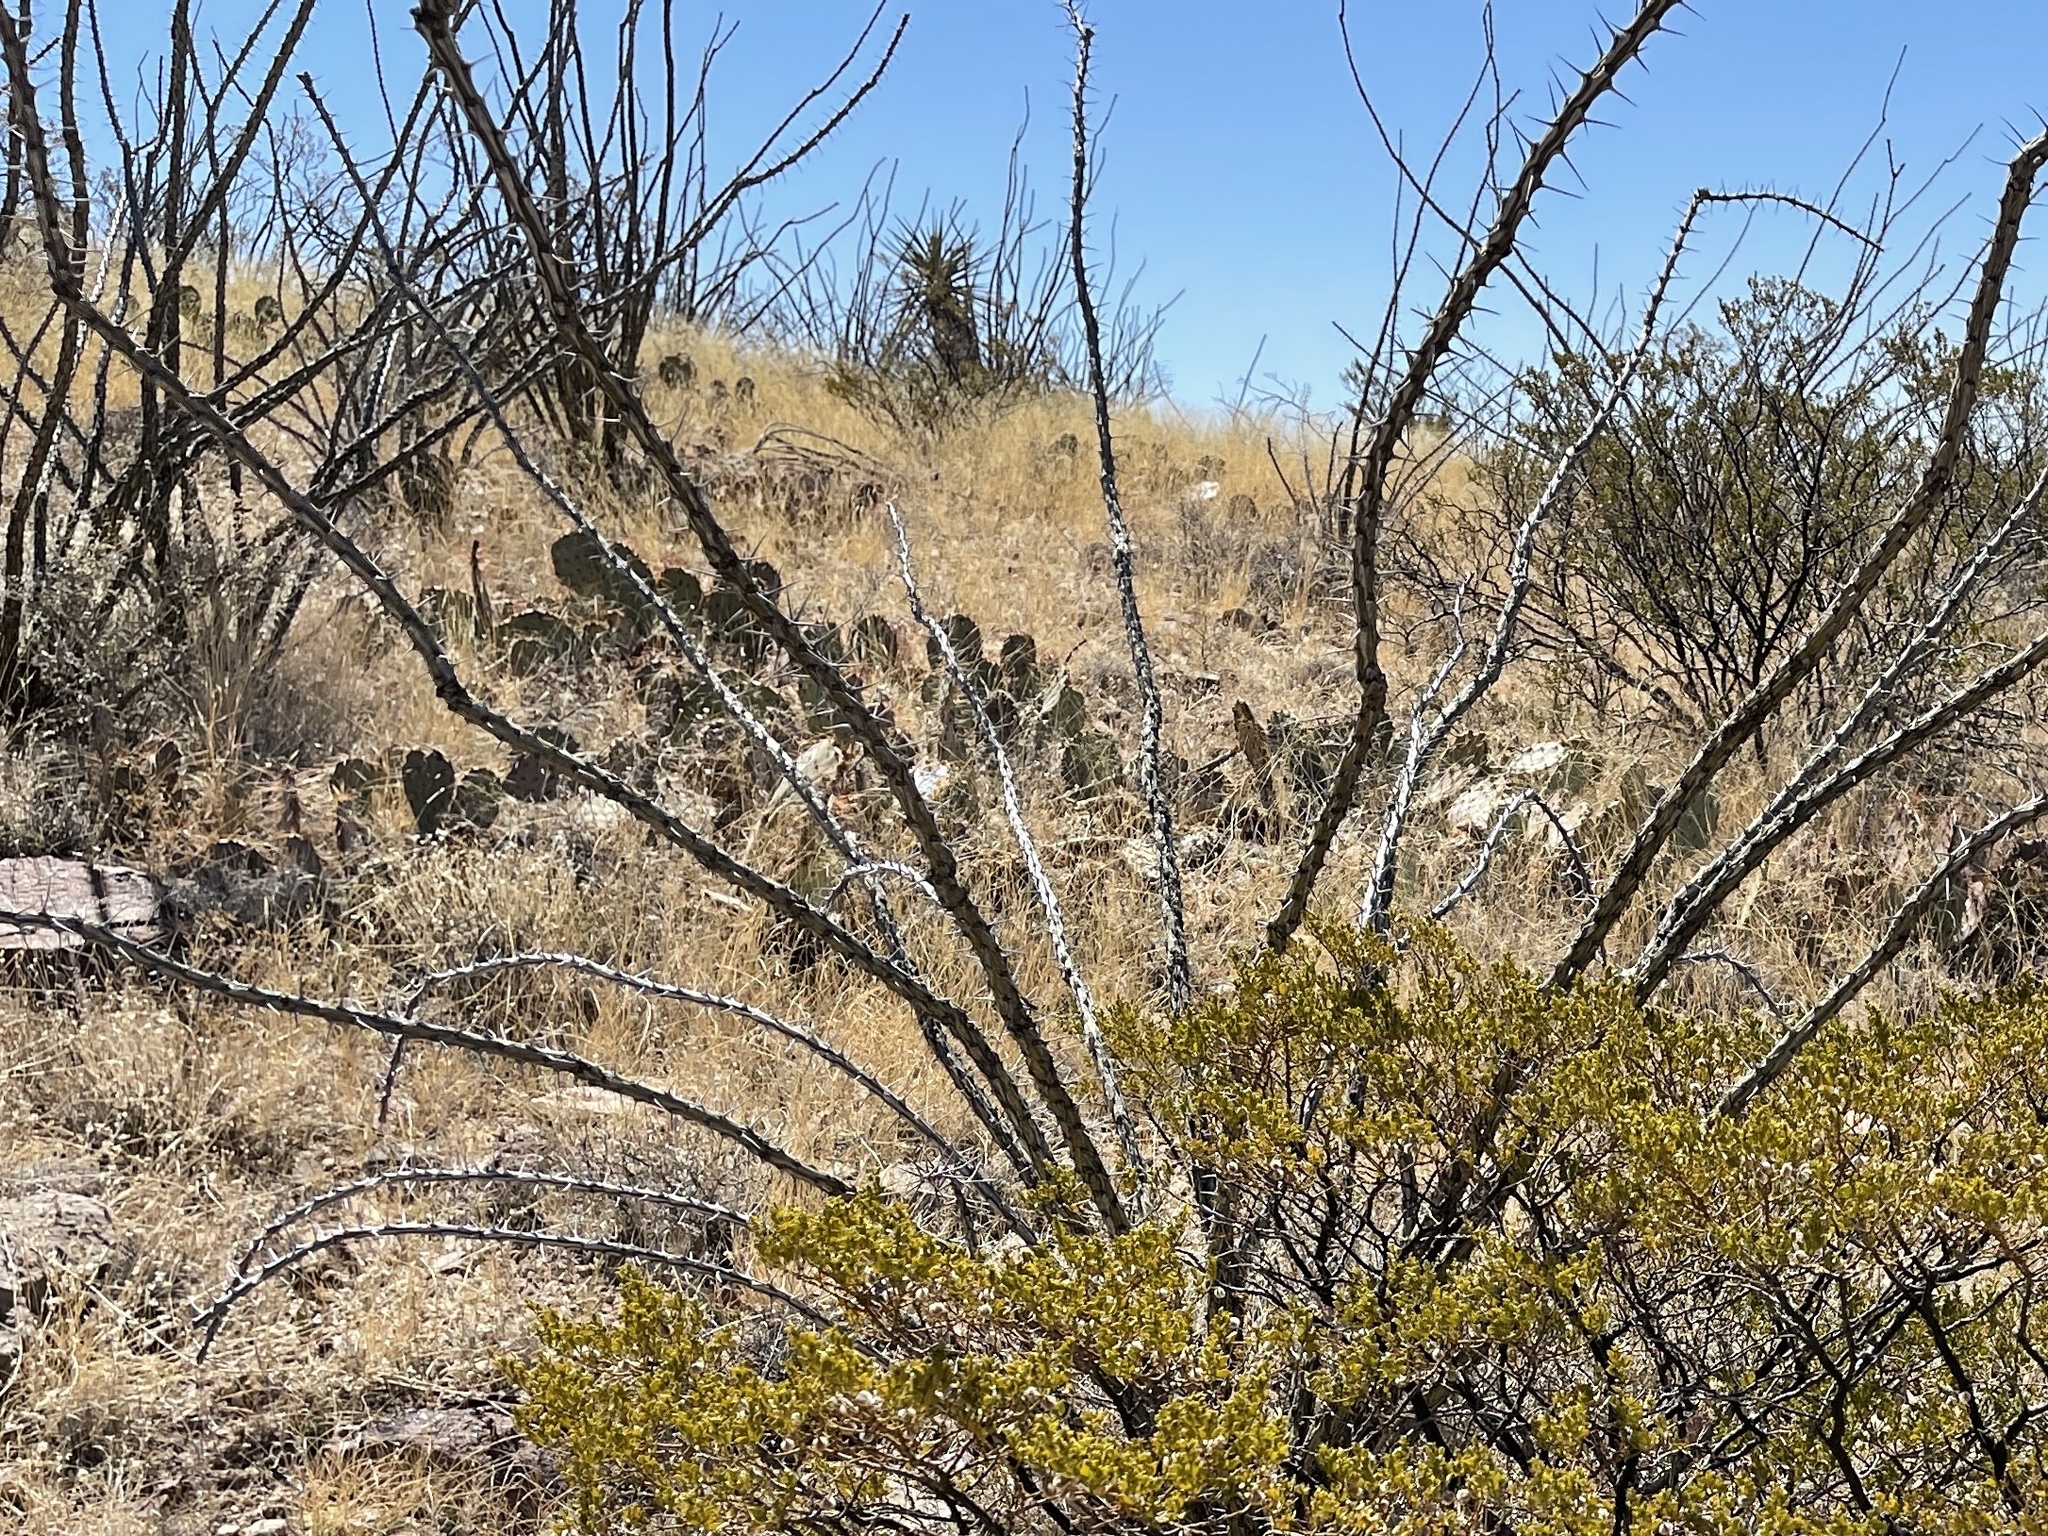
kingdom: Plantae
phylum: Tracheophyta
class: Magnoliopsida
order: Ericales
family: Fouquieriaceae
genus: Fouquieria
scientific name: Fouquieria splendens
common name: Vine-cactus
